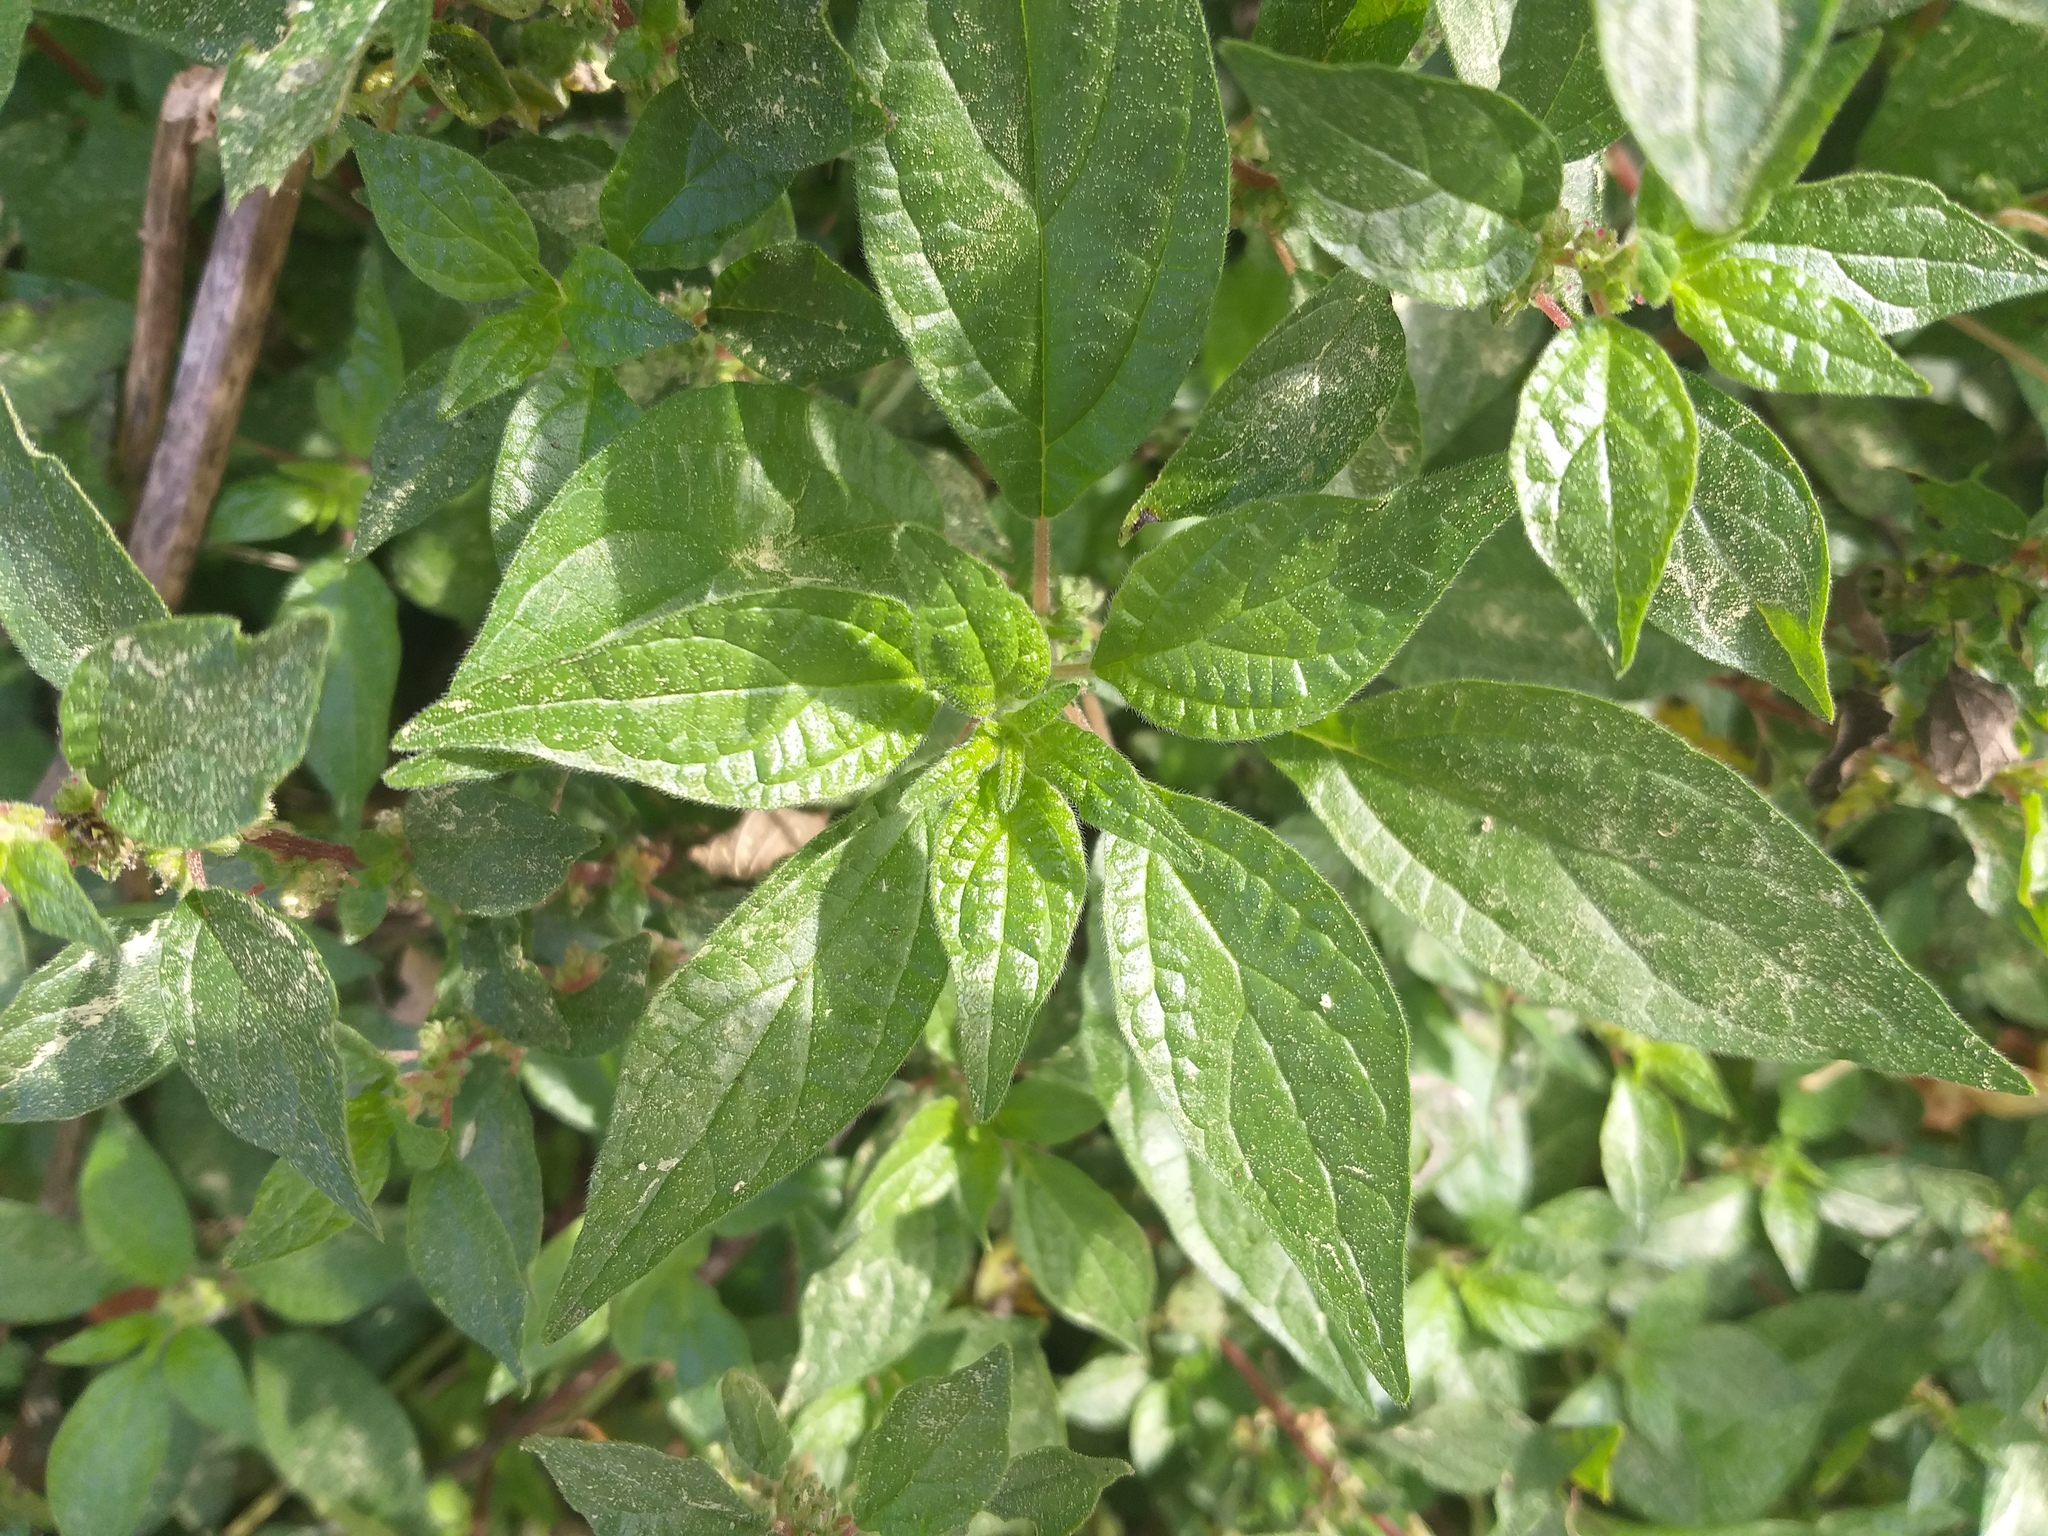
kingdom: Plantae
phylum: Tracheophyta
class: Magnoliopsida
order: Rosales
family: Urticaceae
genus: Parietaria
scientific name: Parietaria judaica
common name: Pellitory-of-the-wall
